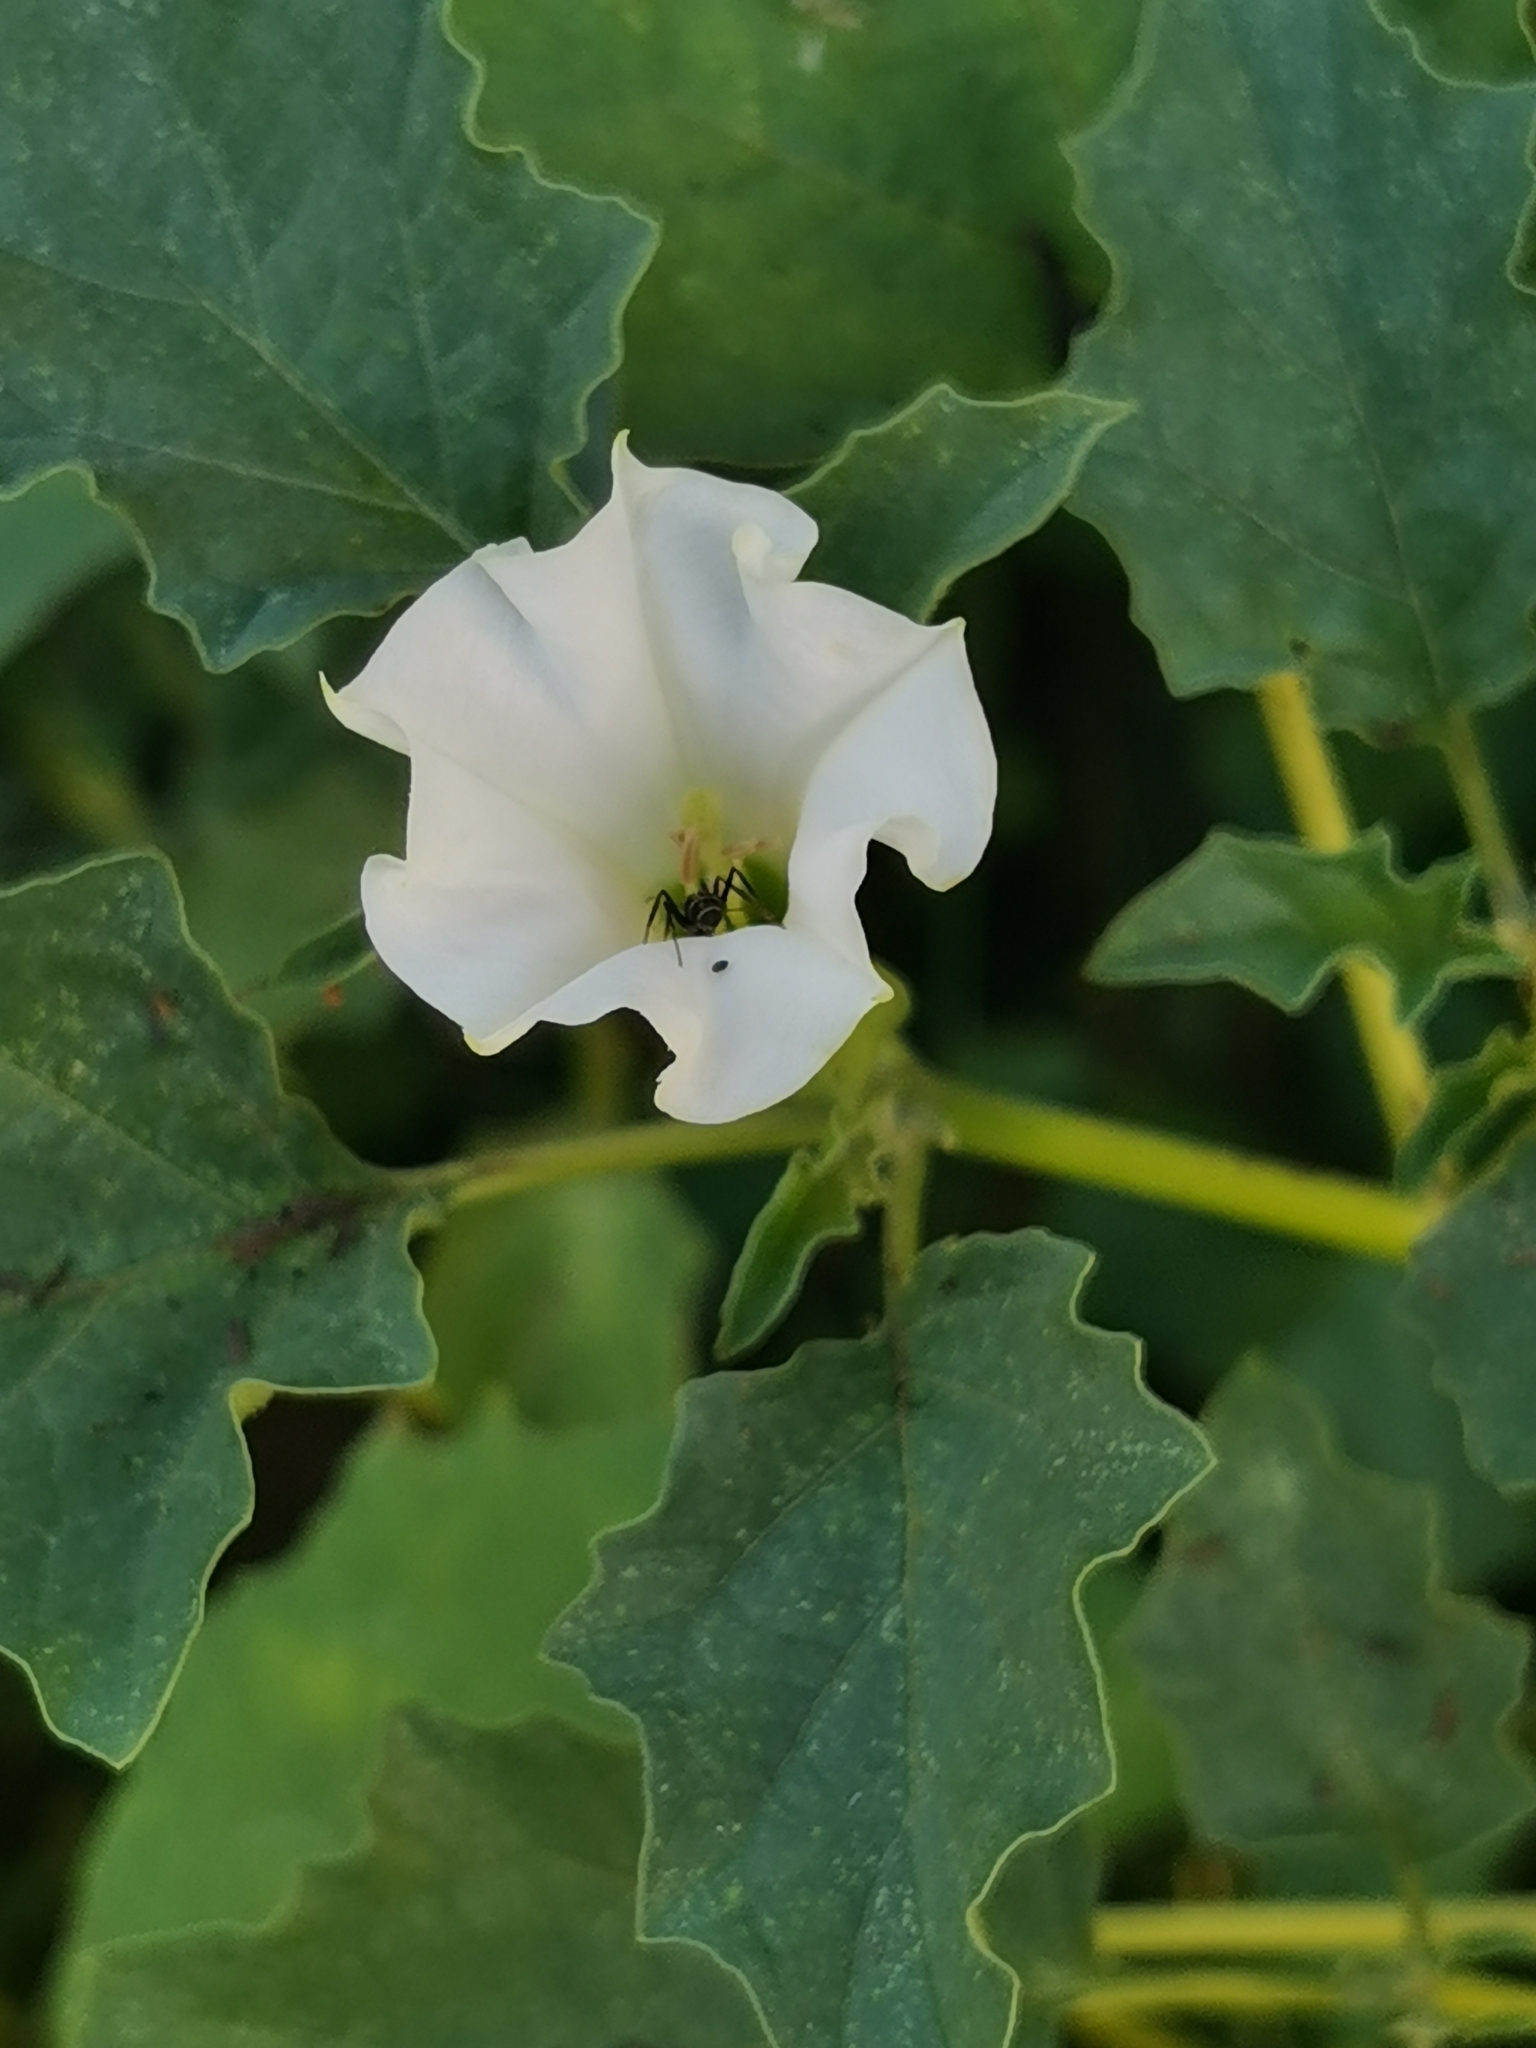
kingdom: Plantae
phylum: Tracheophyta
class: Magnoliopsida
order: Solanales
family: Solanaceae
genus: Datura
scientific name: Datura ferox
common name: Angel's-trumpets
